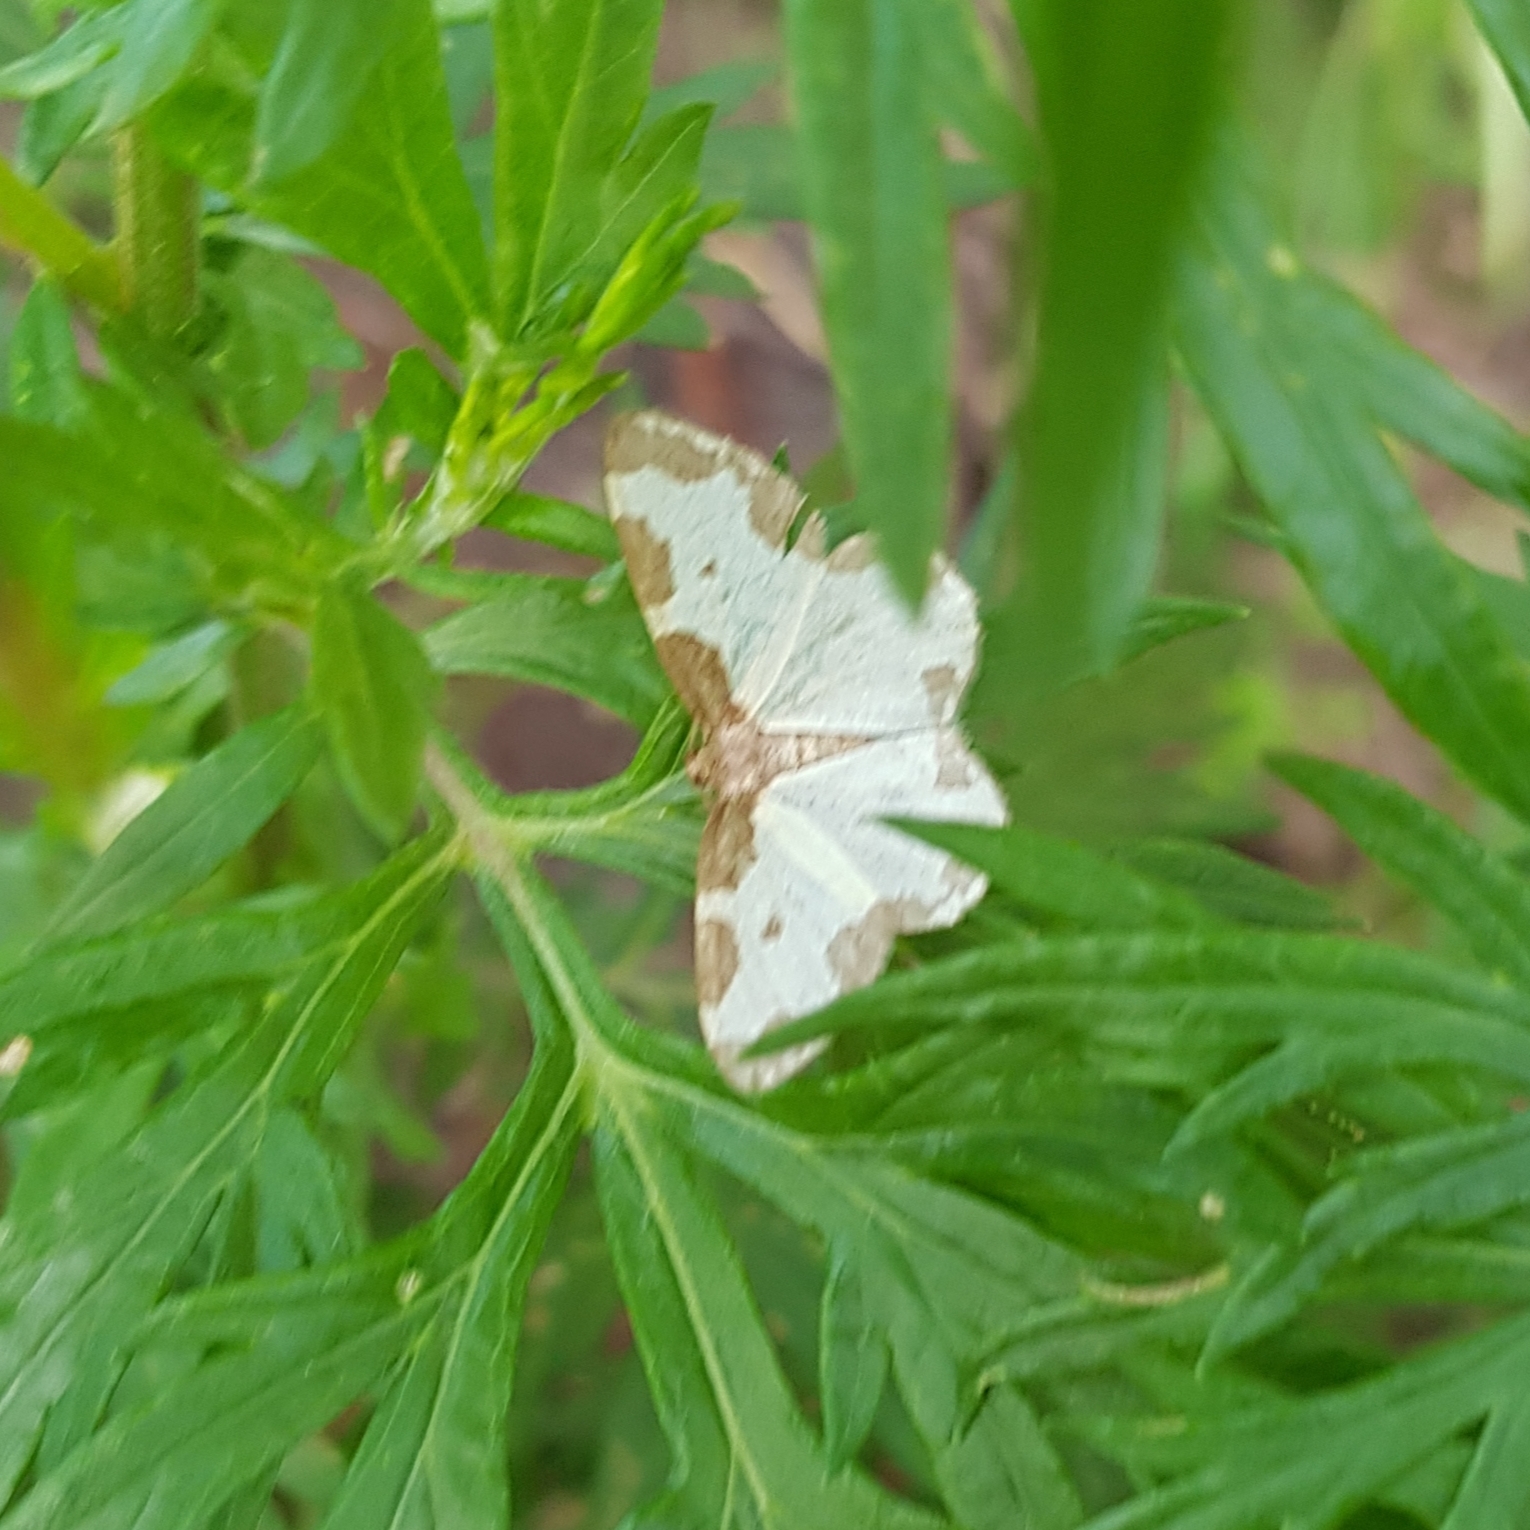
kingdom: Animalia
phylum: Arthropoda
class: Insecta
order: Lepidoptera
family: Geometridae
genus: Lomaspilis
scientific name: Lomaspilis marginata
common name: Clouded border
